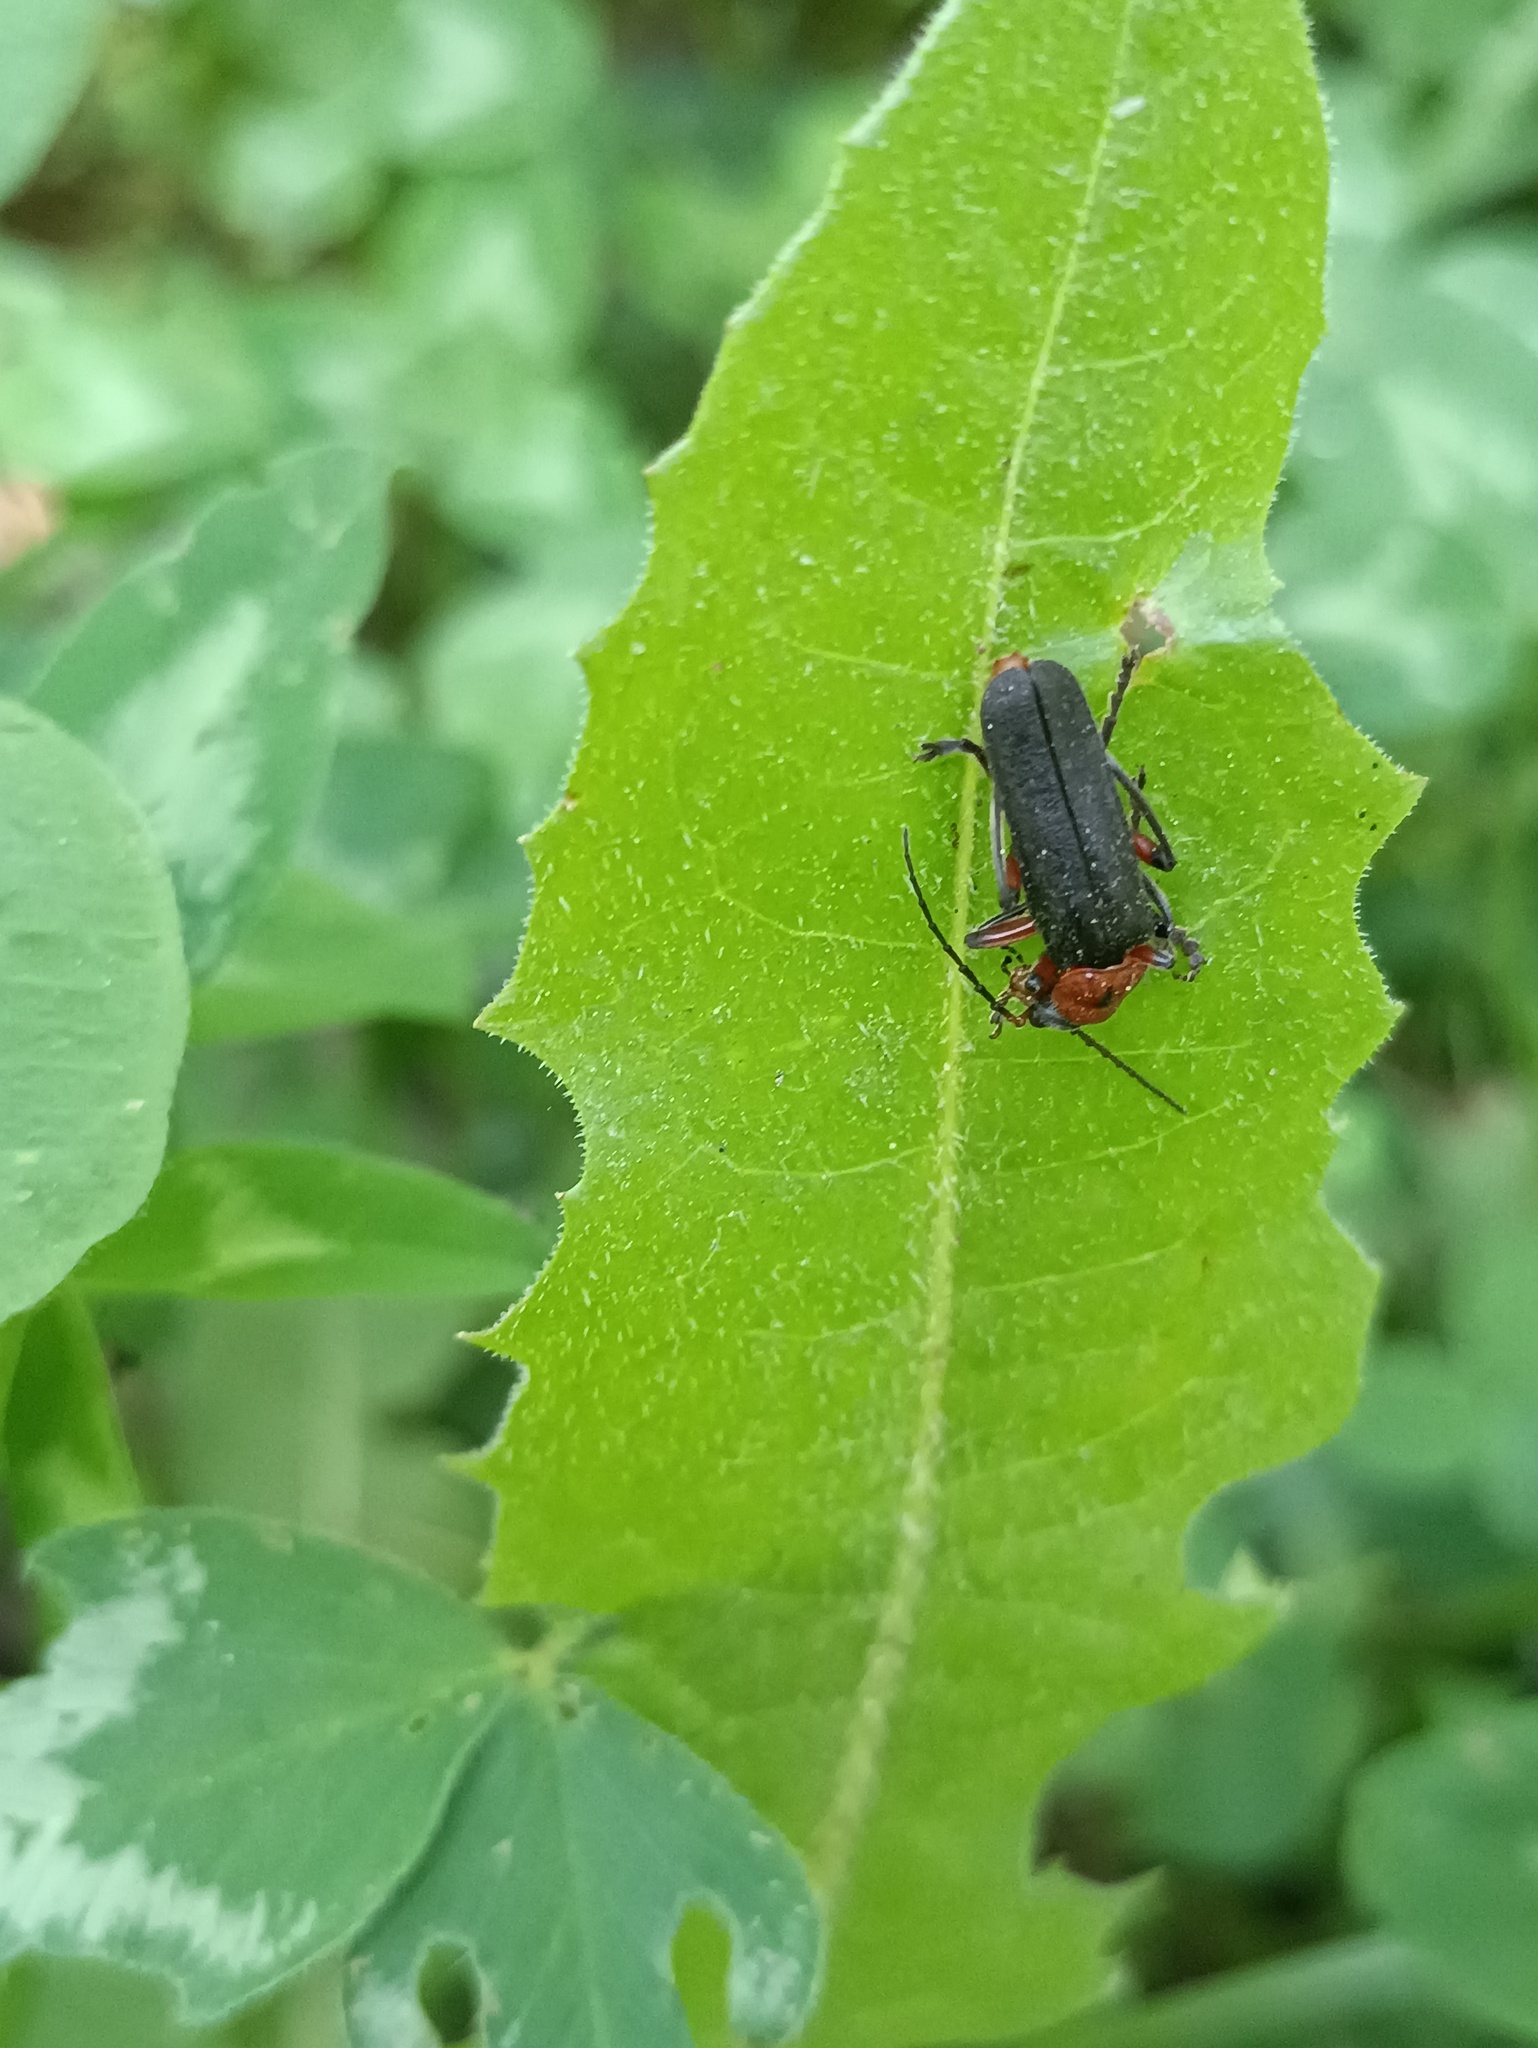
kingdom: Animalia
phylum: Arthropoda
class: Insecta
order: Coleoptera
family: Cantharidae
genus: Cantharis
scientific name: Cantharis rustica
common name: Soldier beetle
